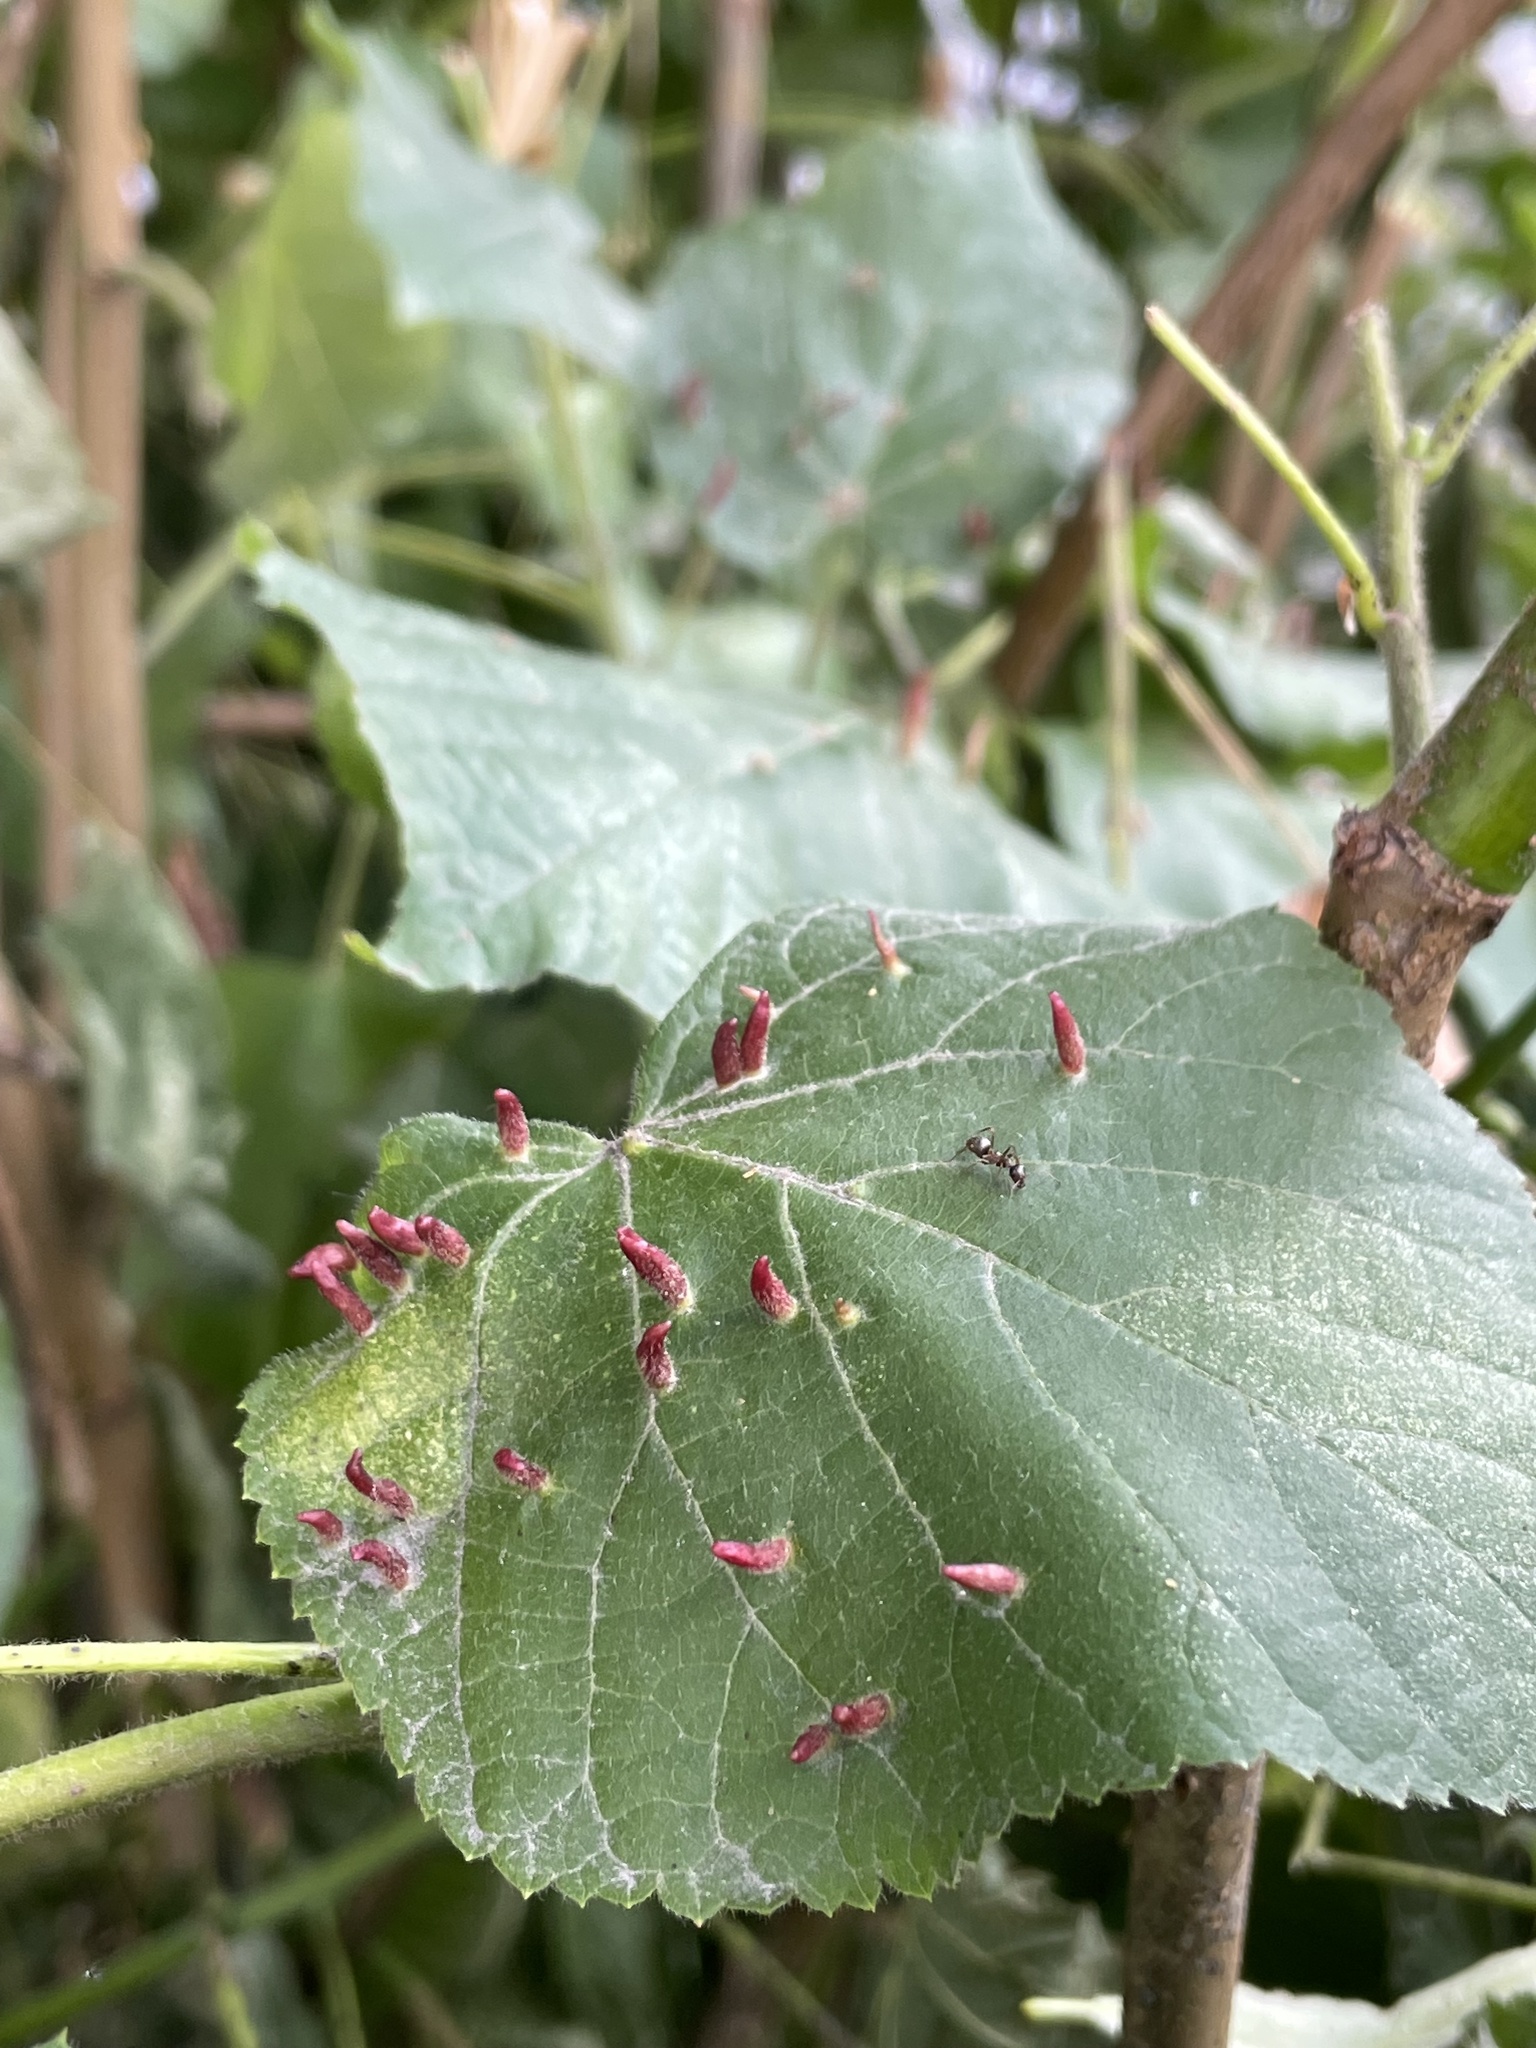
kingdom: Animalia
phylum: Arthropoda
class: Arachnida
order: Trombidiformes
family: Eriophyidae
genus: Eriophyes
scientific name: Eriophyes tiliae
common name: Red nail gall mite
